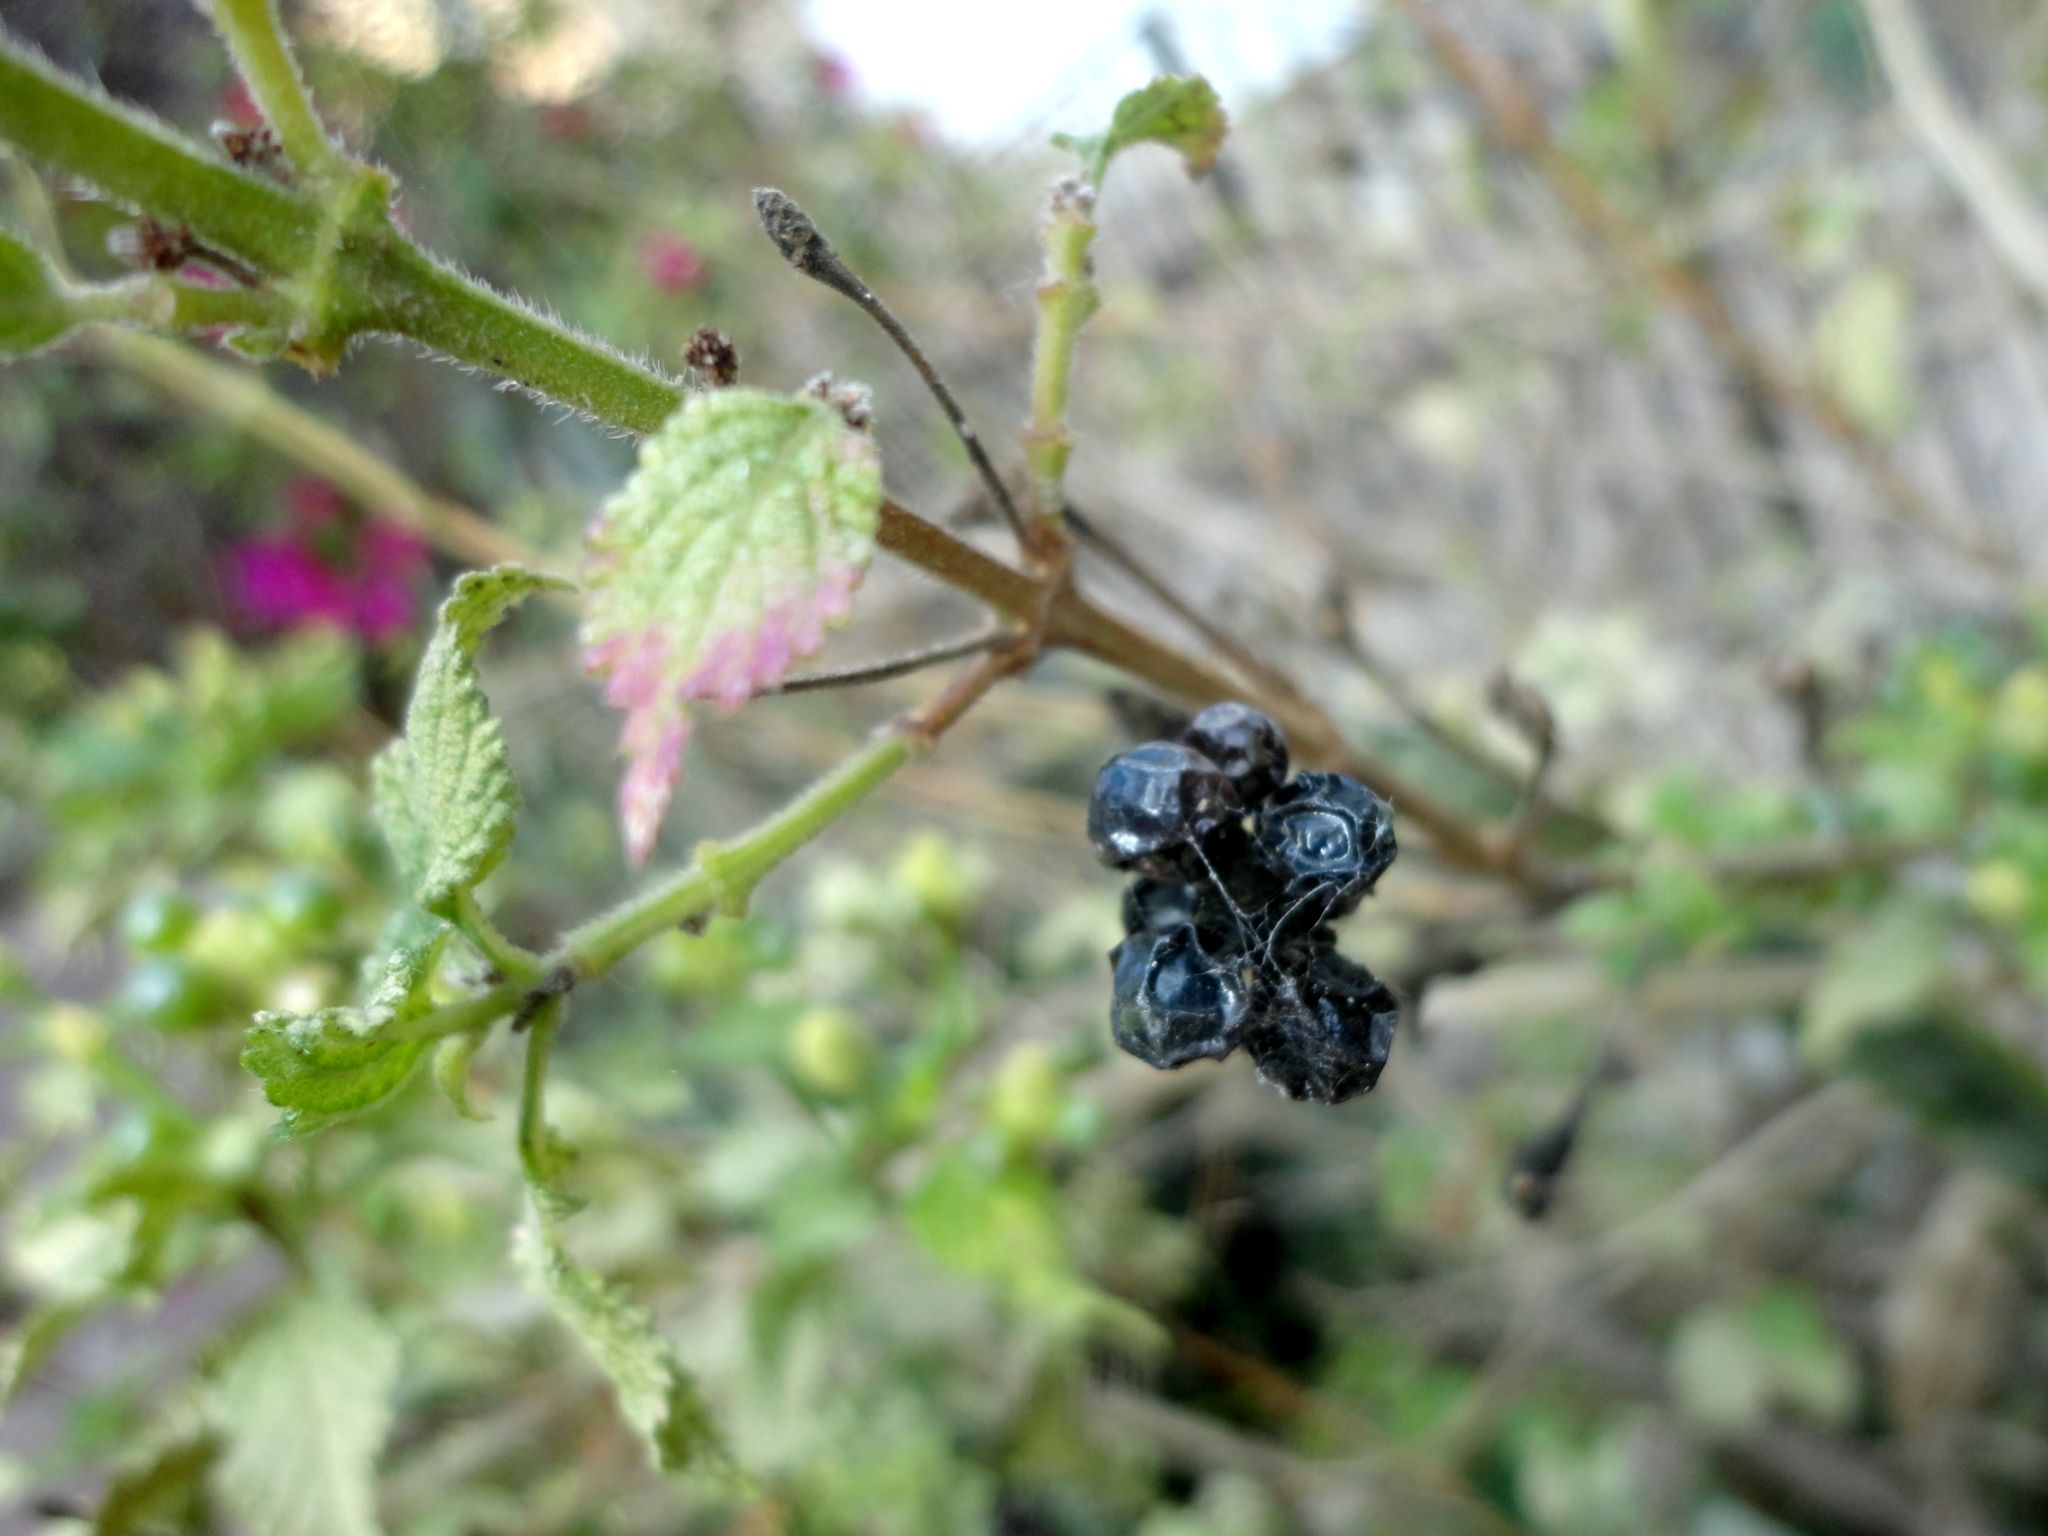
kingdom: Plantae
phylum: Tracheophyta
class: Magnoliopsida
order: Lamiales
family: Verbenaceae
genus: Lantana
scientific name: Lantana camara
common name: Lantana
